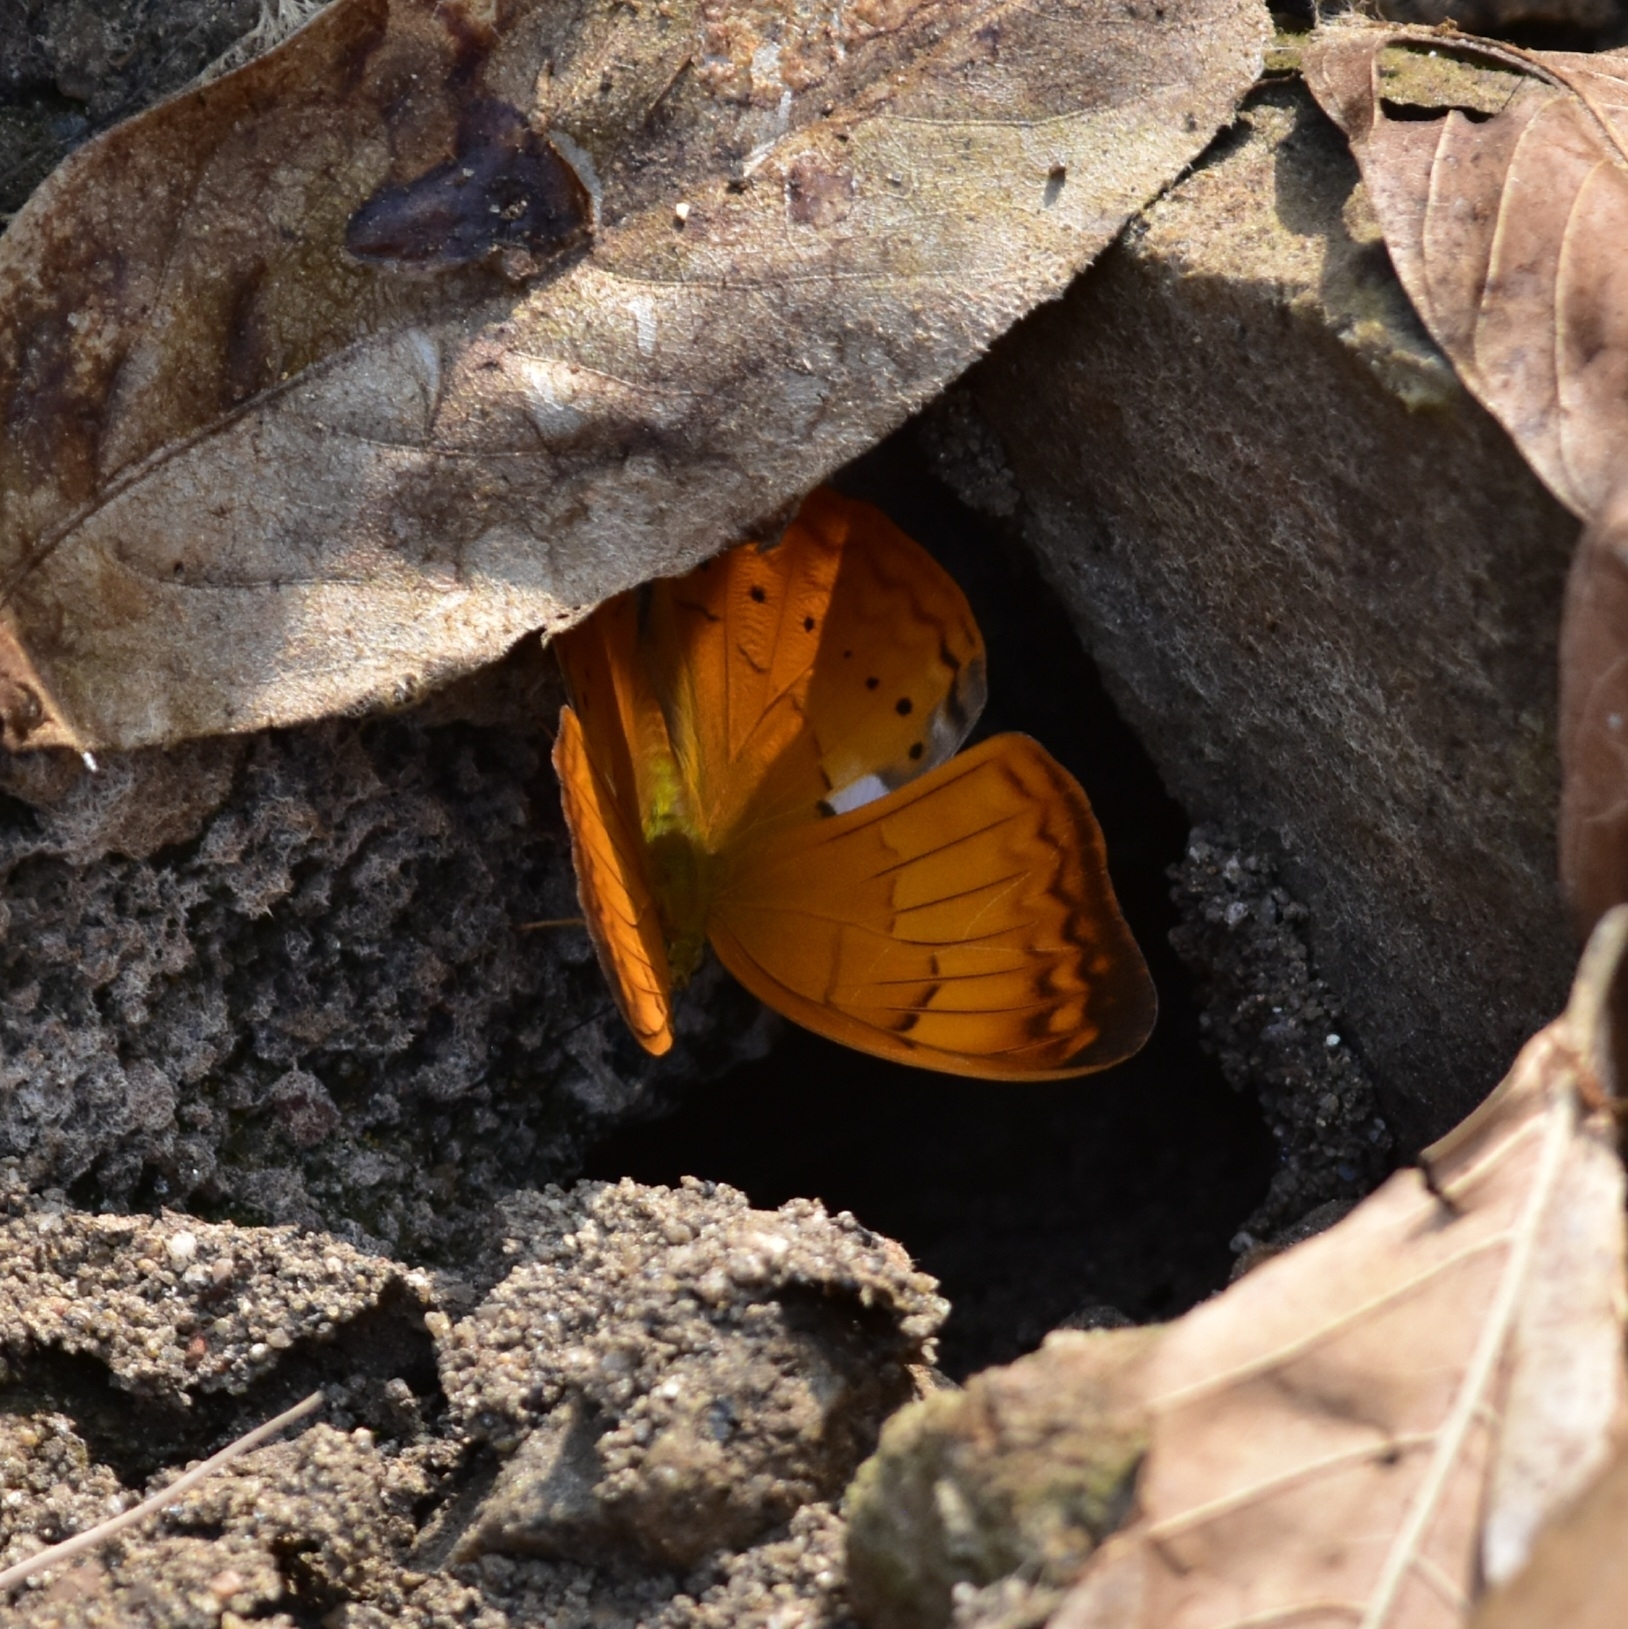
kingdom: Animalia
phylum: Arthropoda
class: Insecta
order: Lepidoptera
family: Nymphalidae
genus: Cirrochroa
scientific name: Cirrochroa thais
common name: Tamil yeoman
